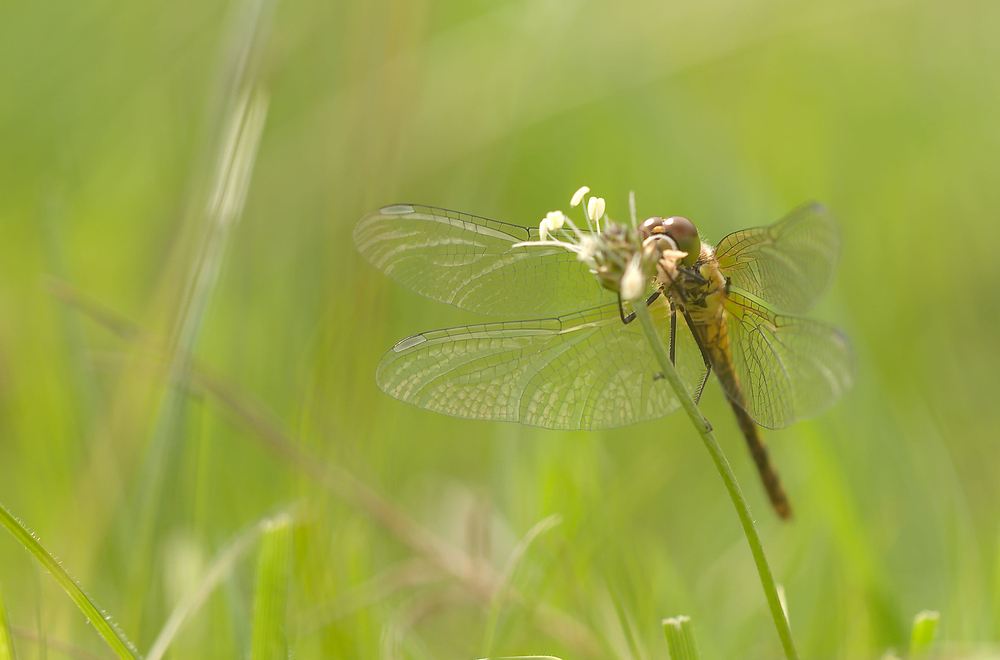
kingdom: Animalia
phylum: Arthropoda
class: Insecta
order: Odonata
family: Libellulidae
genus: Sympetrum
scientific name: Sympetrum sanguineum
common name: Ruddy darter
